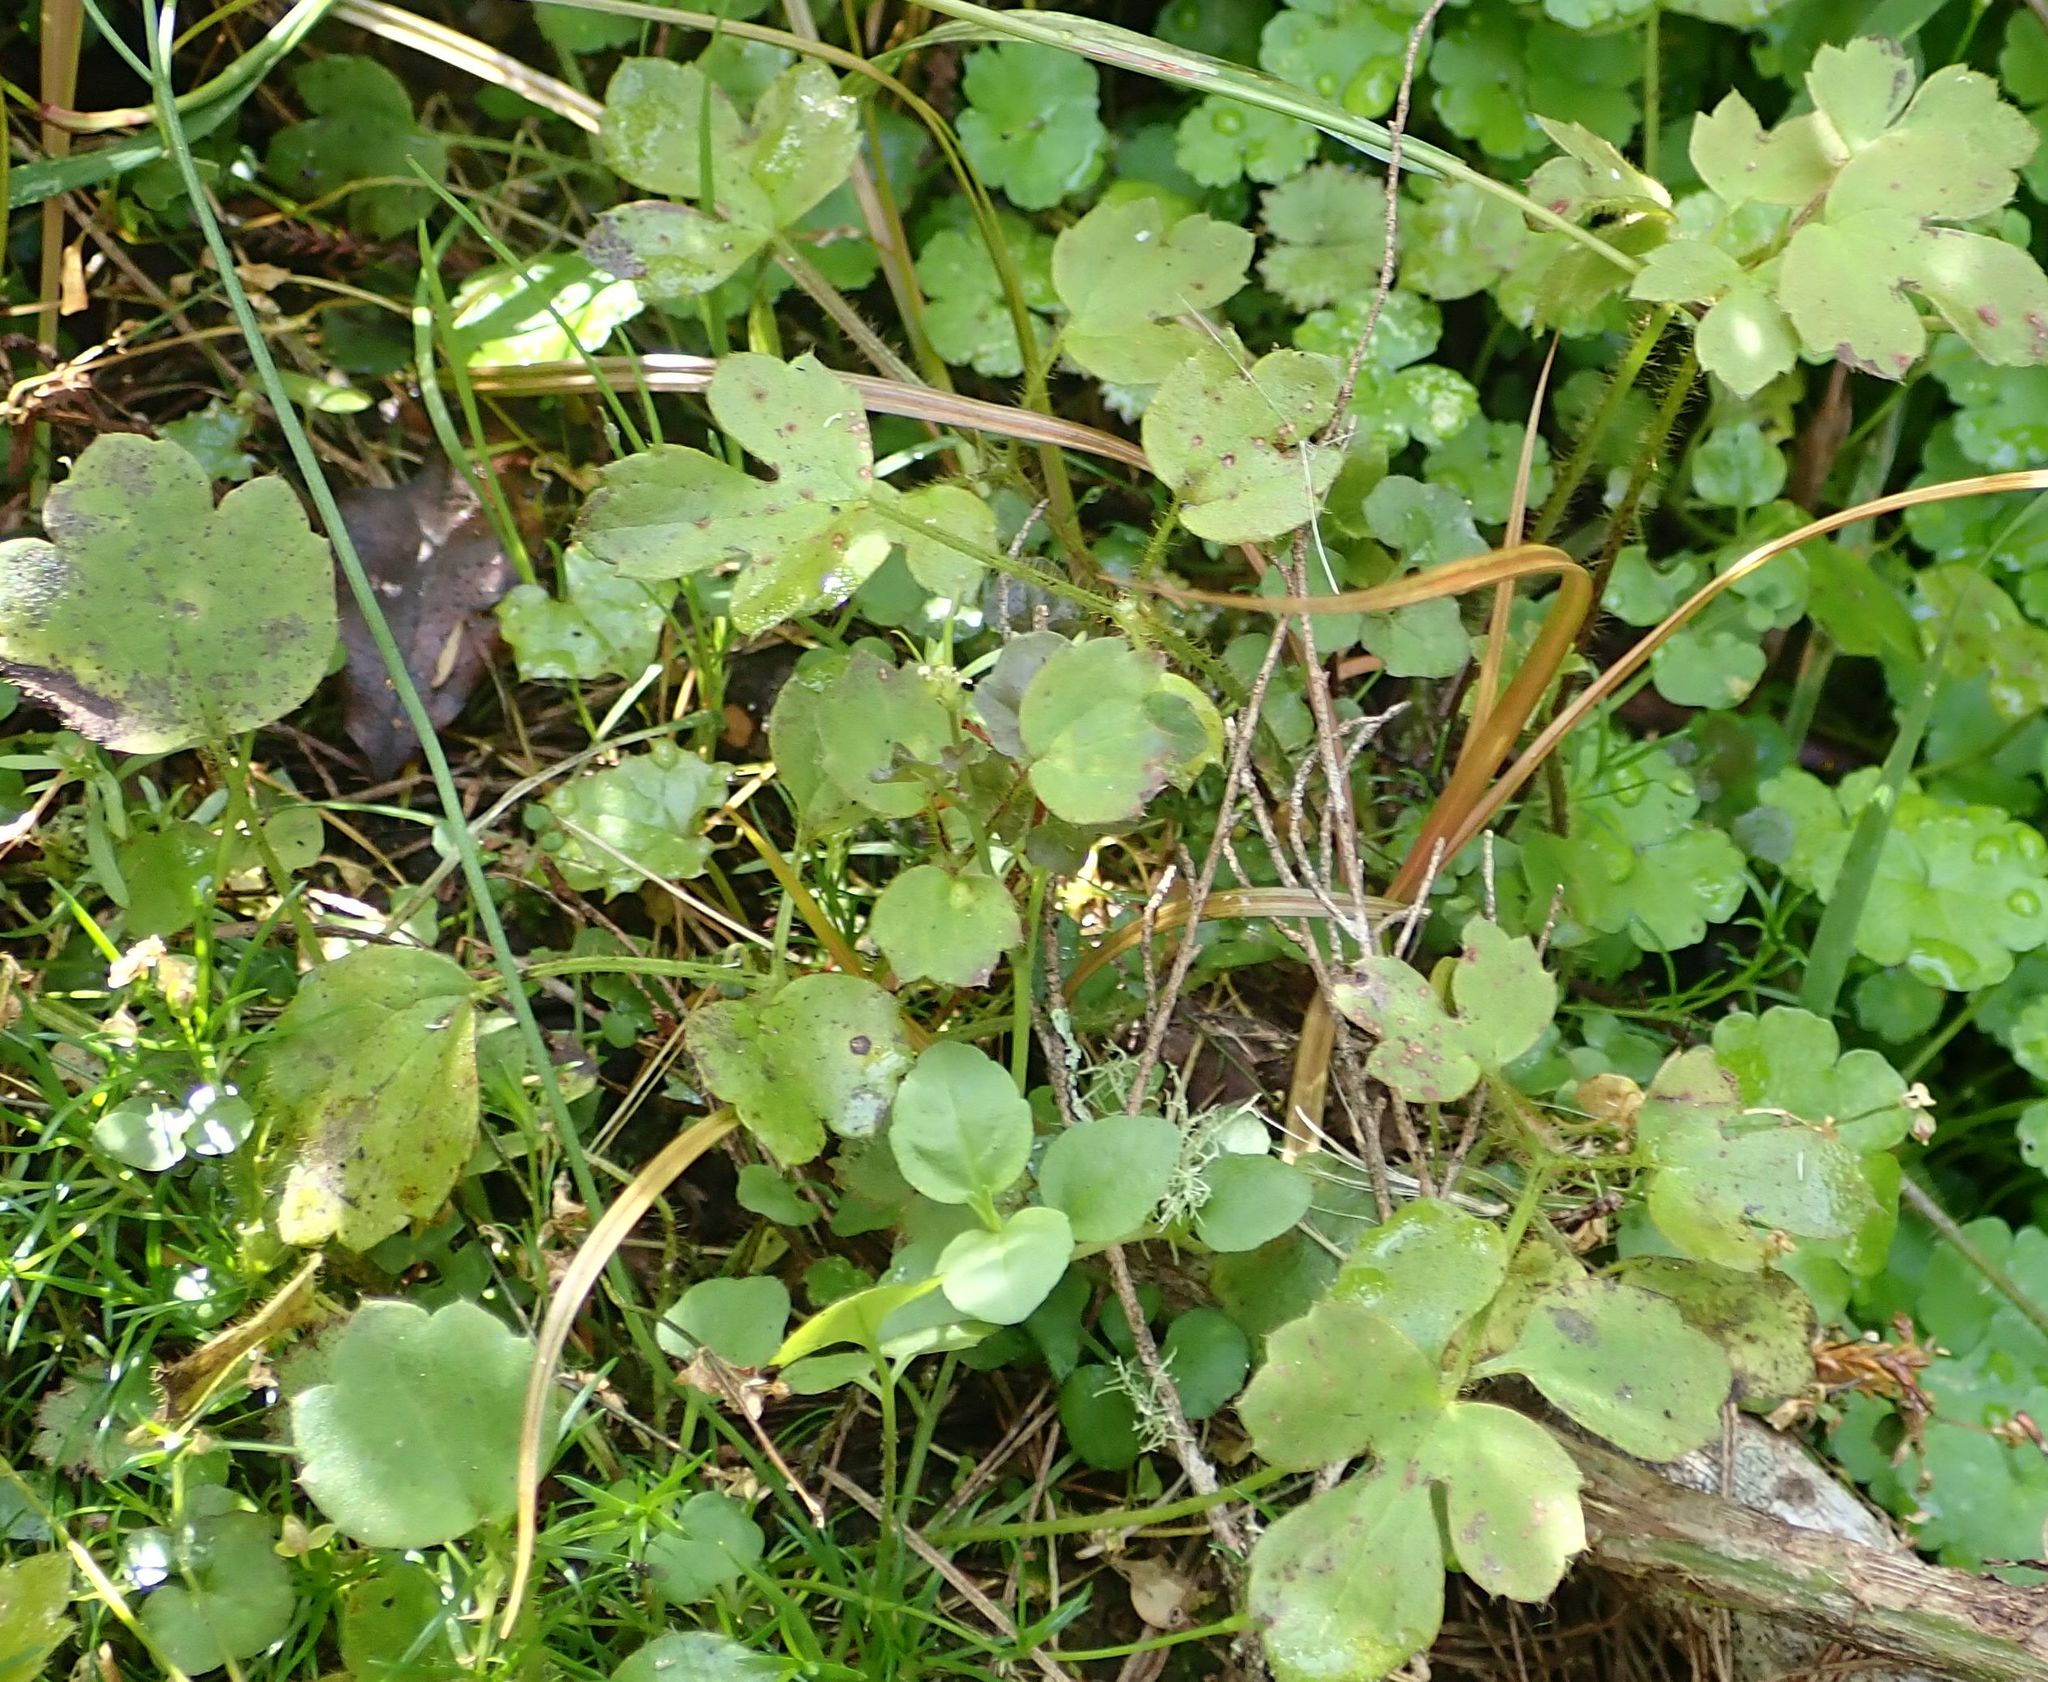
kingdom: Plantae
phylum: Tracheophyta
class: Magnoliopsida
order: Ranunculales
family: Ranunculaceae
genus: Ranunculus
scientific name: Ranunculus reflexus
